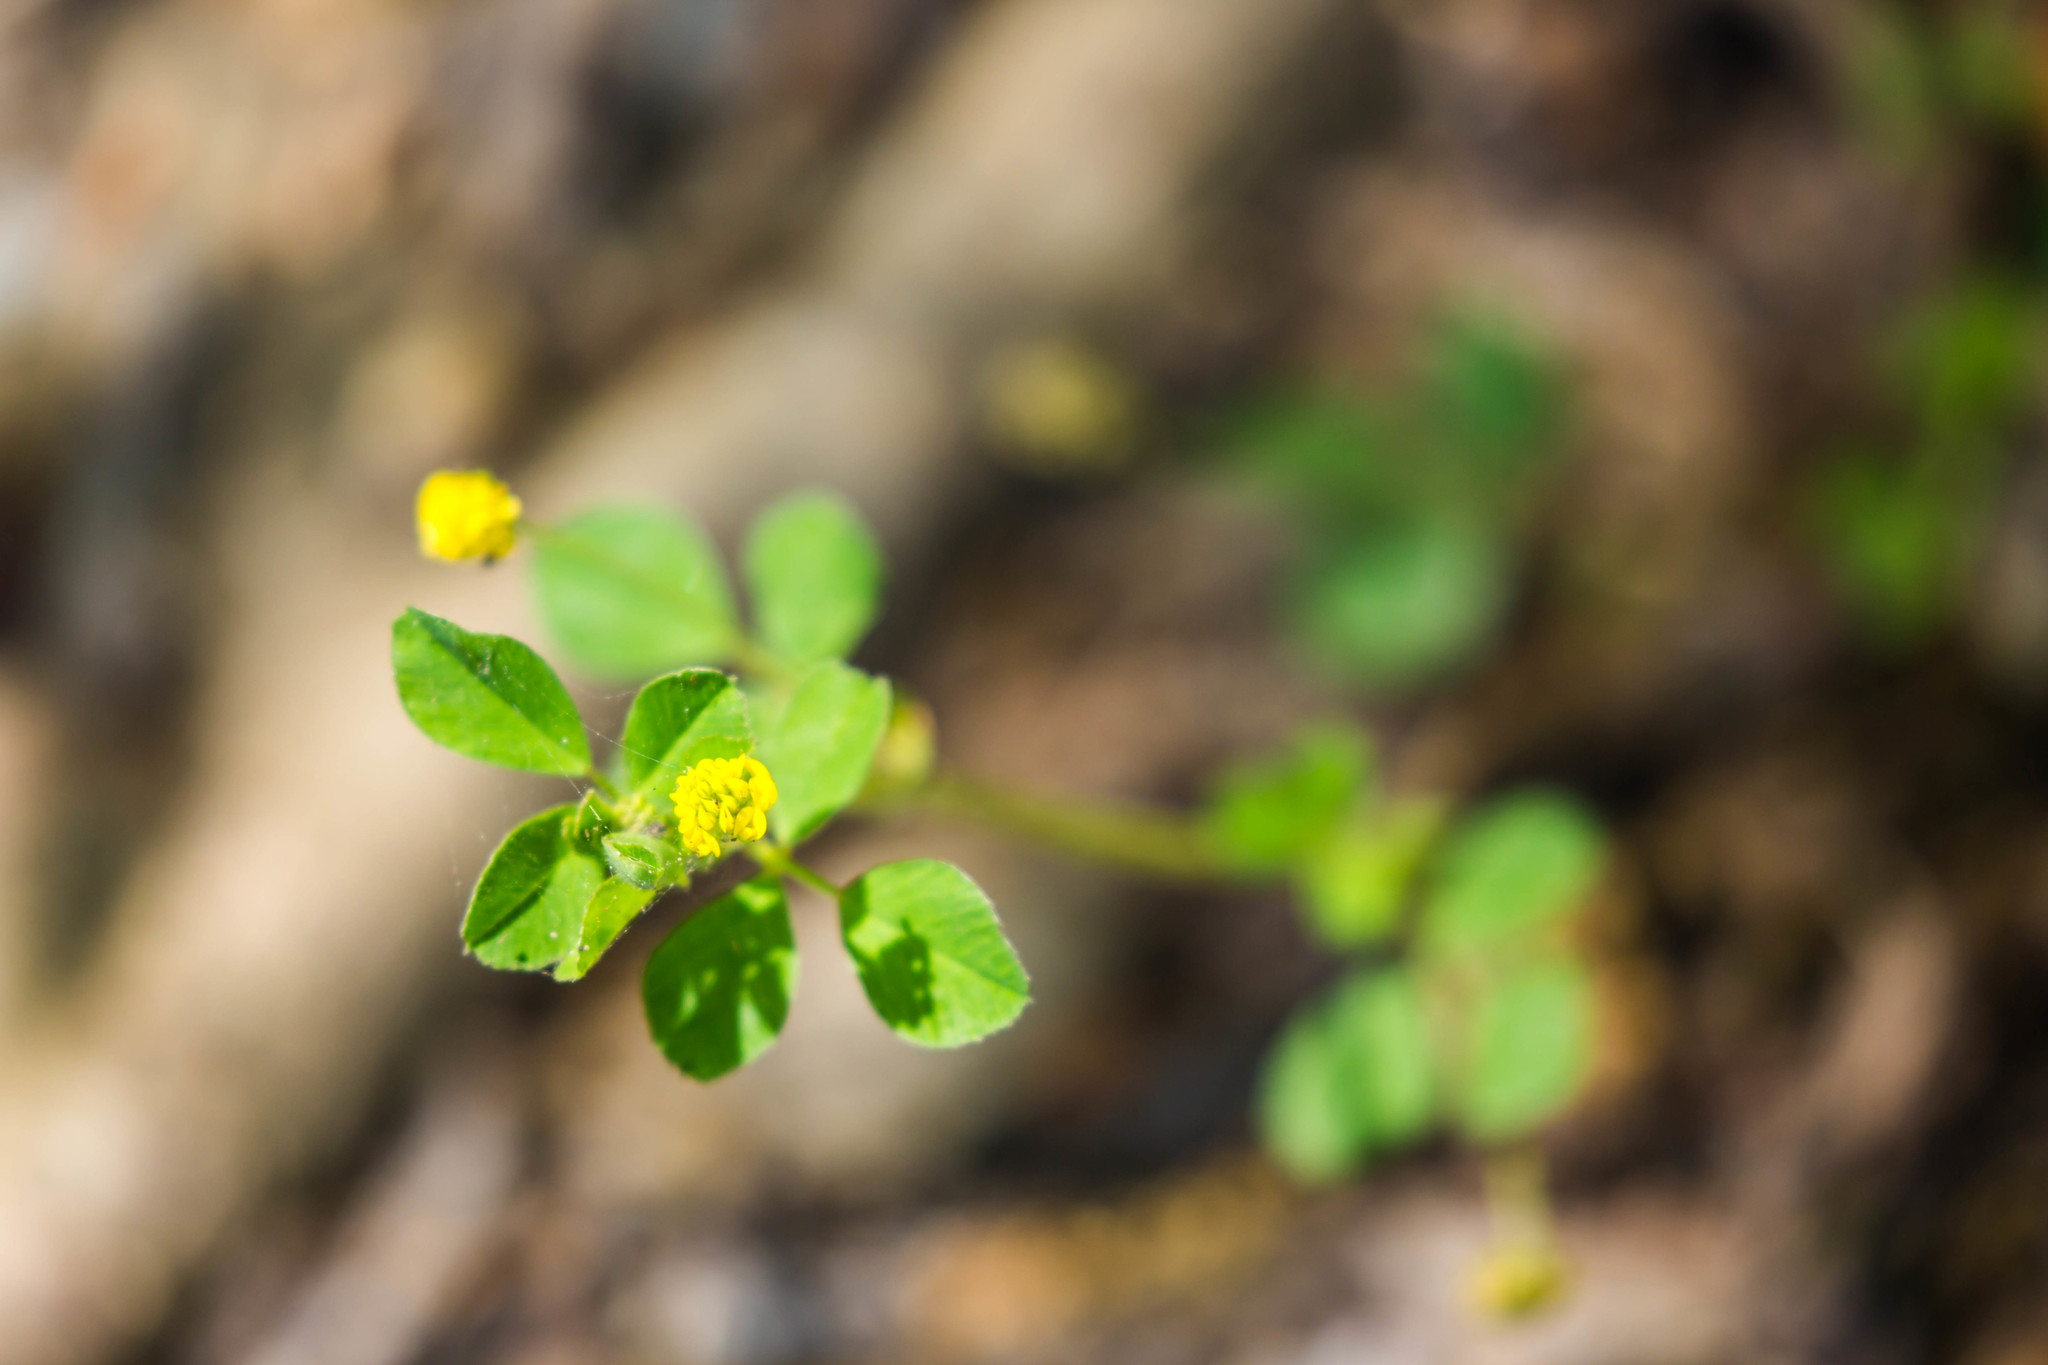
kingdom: Plantae
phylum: Tracheophyta
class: Magnoliopsida
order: Fabales
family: Fabaceae
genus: Medicago
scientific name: Medicago lupulina
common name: Black medick
